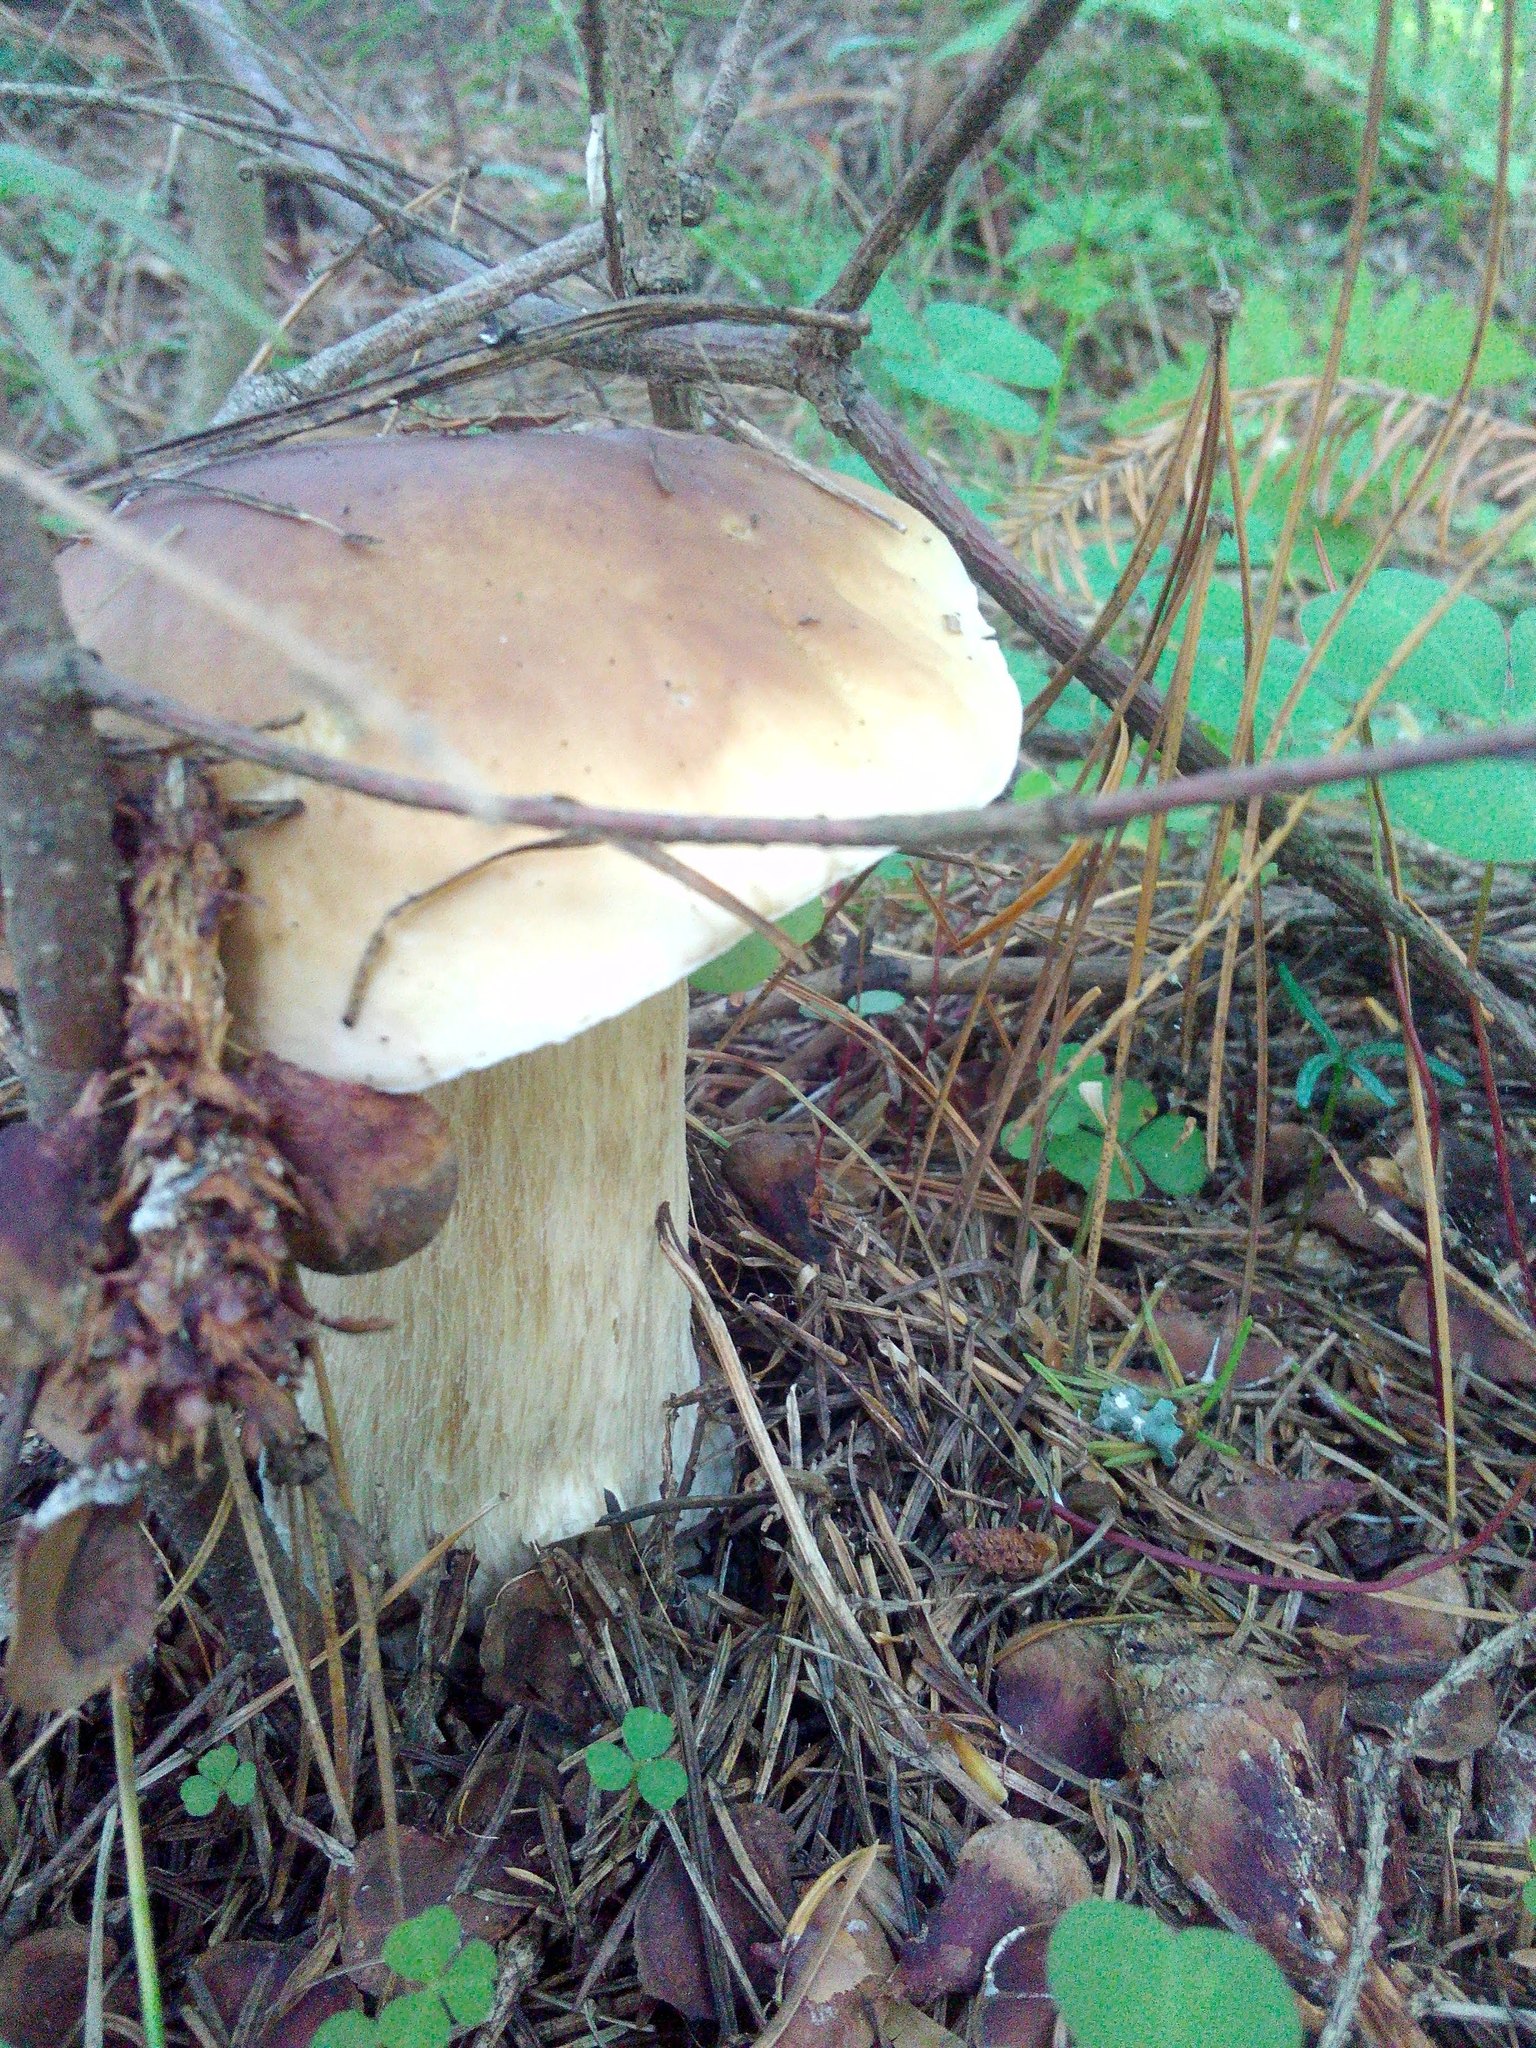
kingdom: Fungi
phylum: Basidiomycota
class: Agaricomycetes
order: Boletales
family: Boletaceae
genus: Boletus
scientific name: Boletus edulis
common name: Cep
